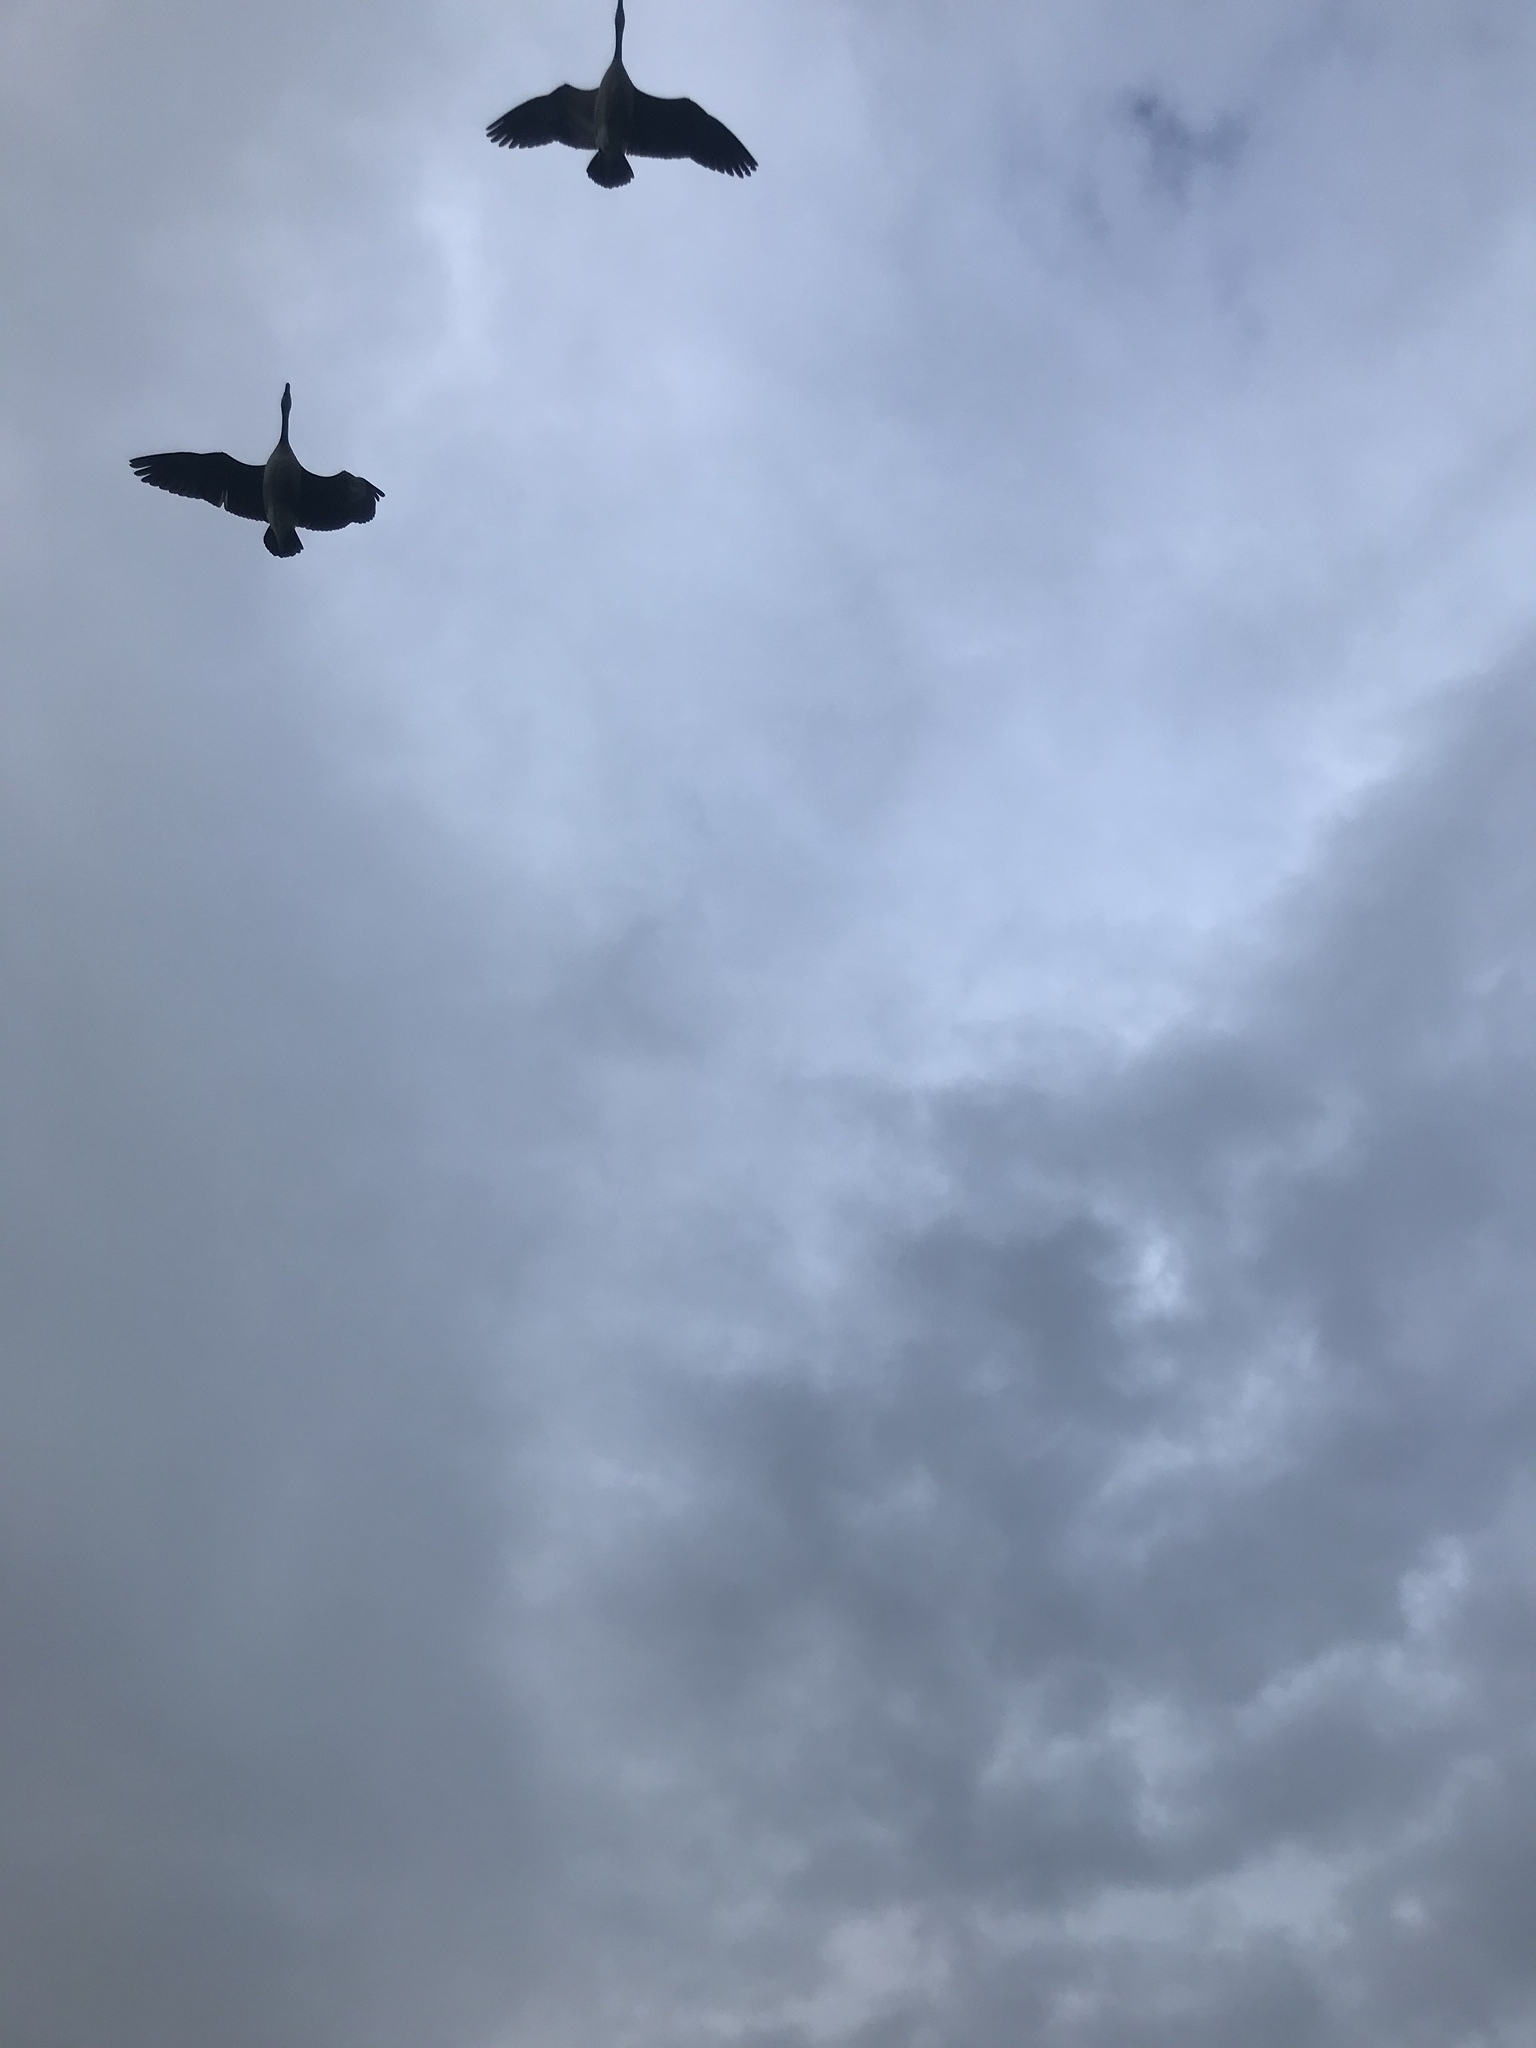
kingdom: Animalia
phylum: Chordata
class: Aves
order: Anseriformes
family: Anatidae
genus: Branta
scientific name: Branta canadensis
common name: Canada goose
